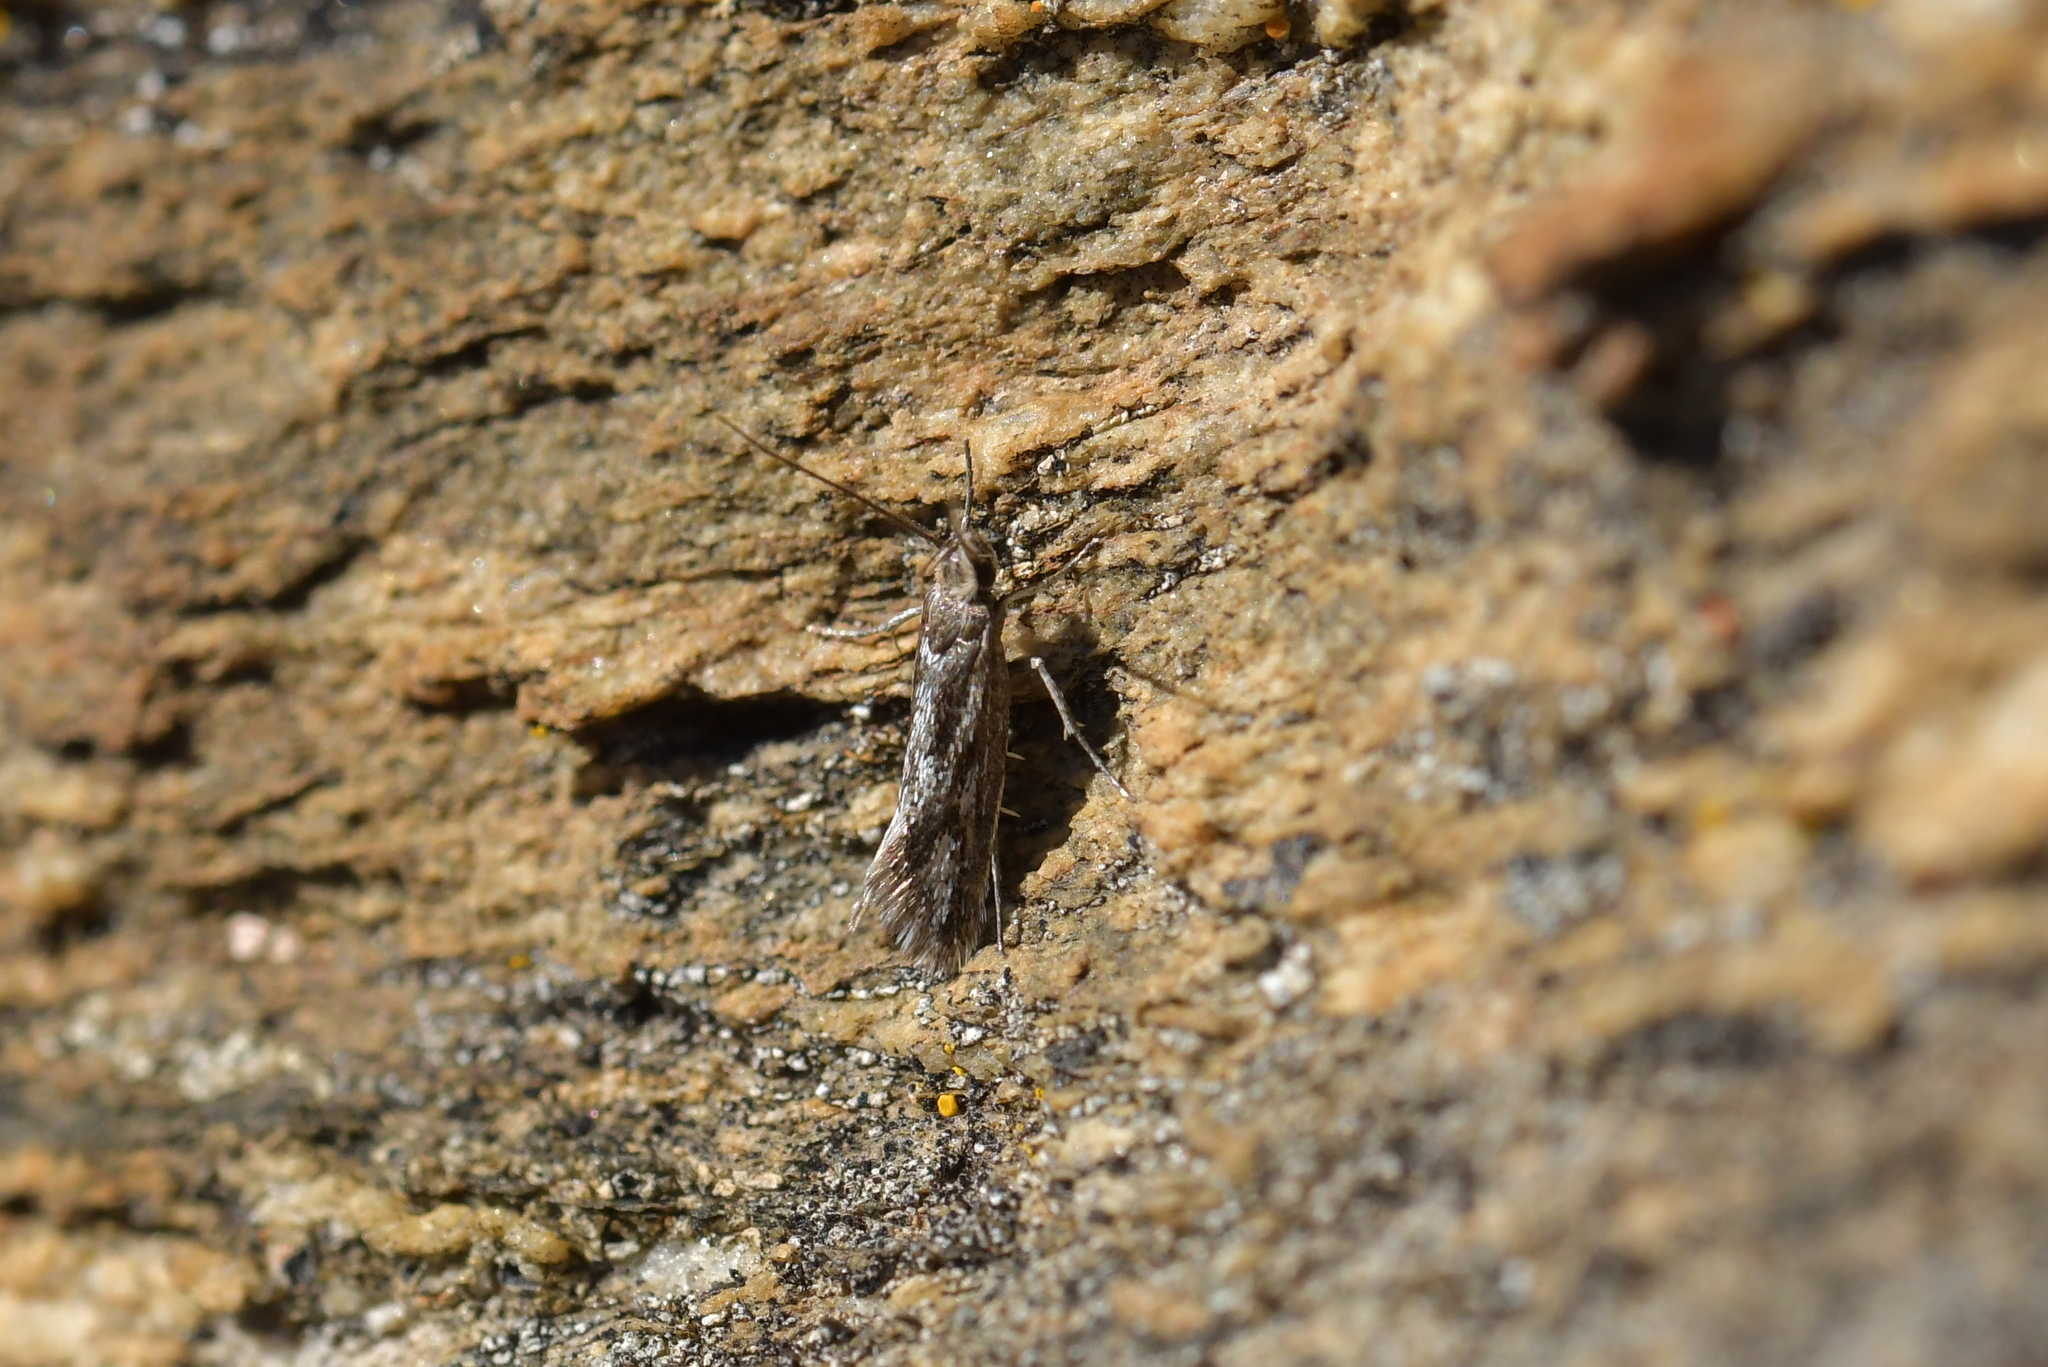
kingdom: Animalia
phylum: Arthropoda
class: Insecta
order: Lepidoptera
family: Oecophoridae
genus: Prepalla
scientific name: Prepalla
